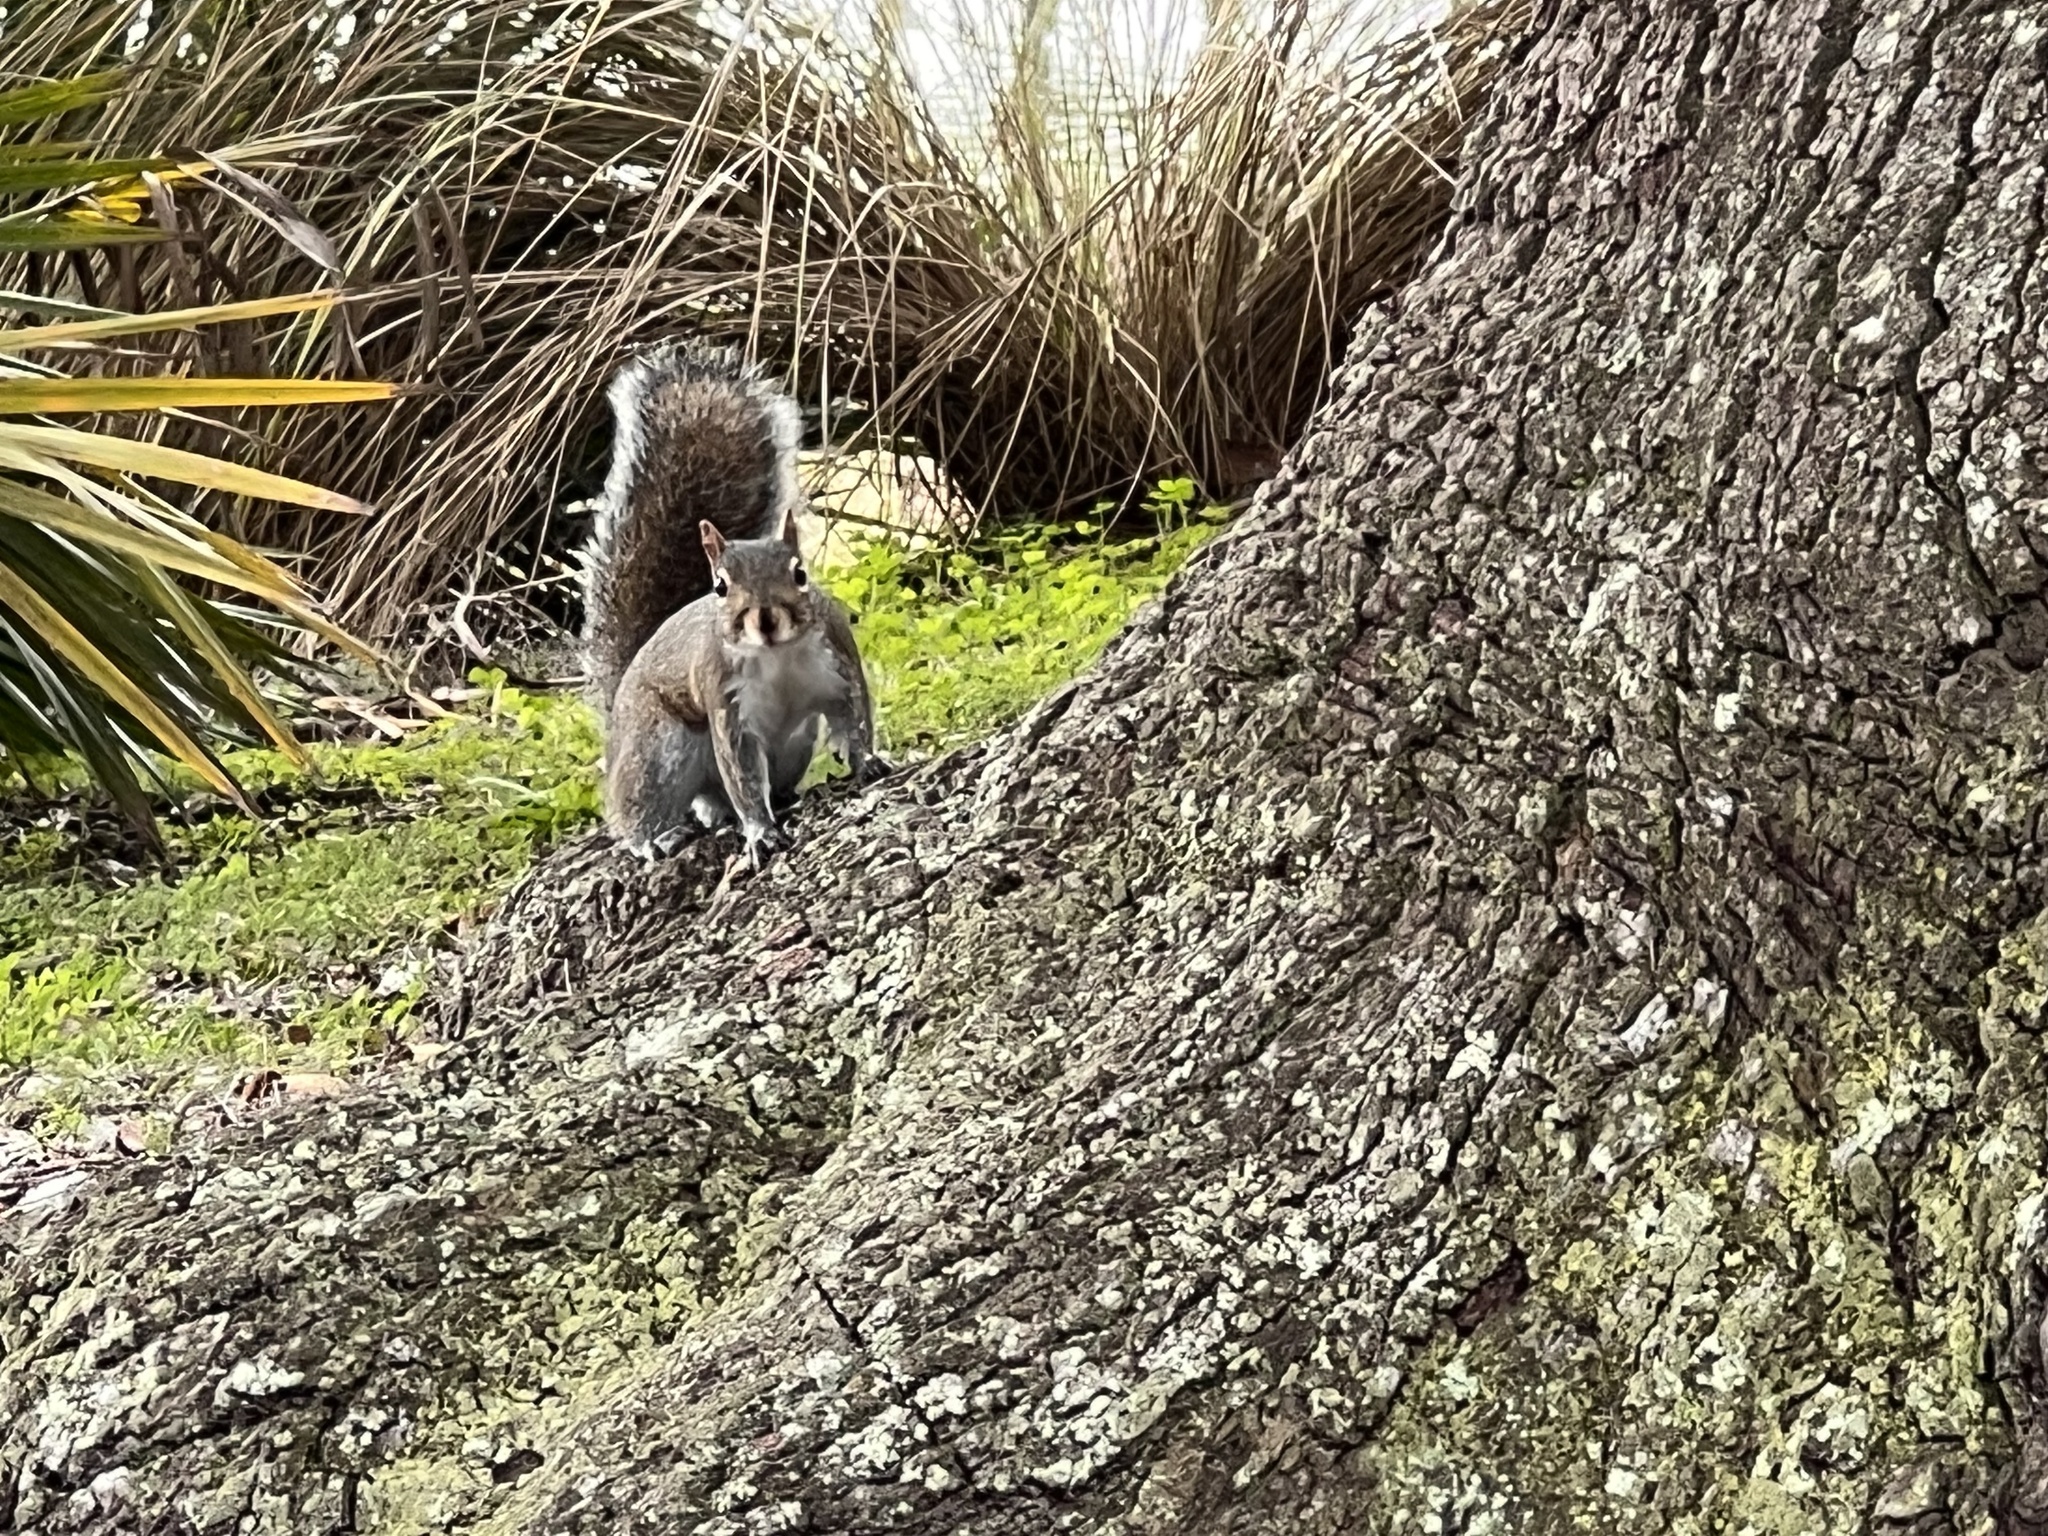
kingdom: Animalia
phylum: Chordata
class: Mammalia
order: Rodentia
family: Sciuridae
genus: Sciurus
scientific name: Sciurus carolinensis
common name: Eastern gray squirrel
